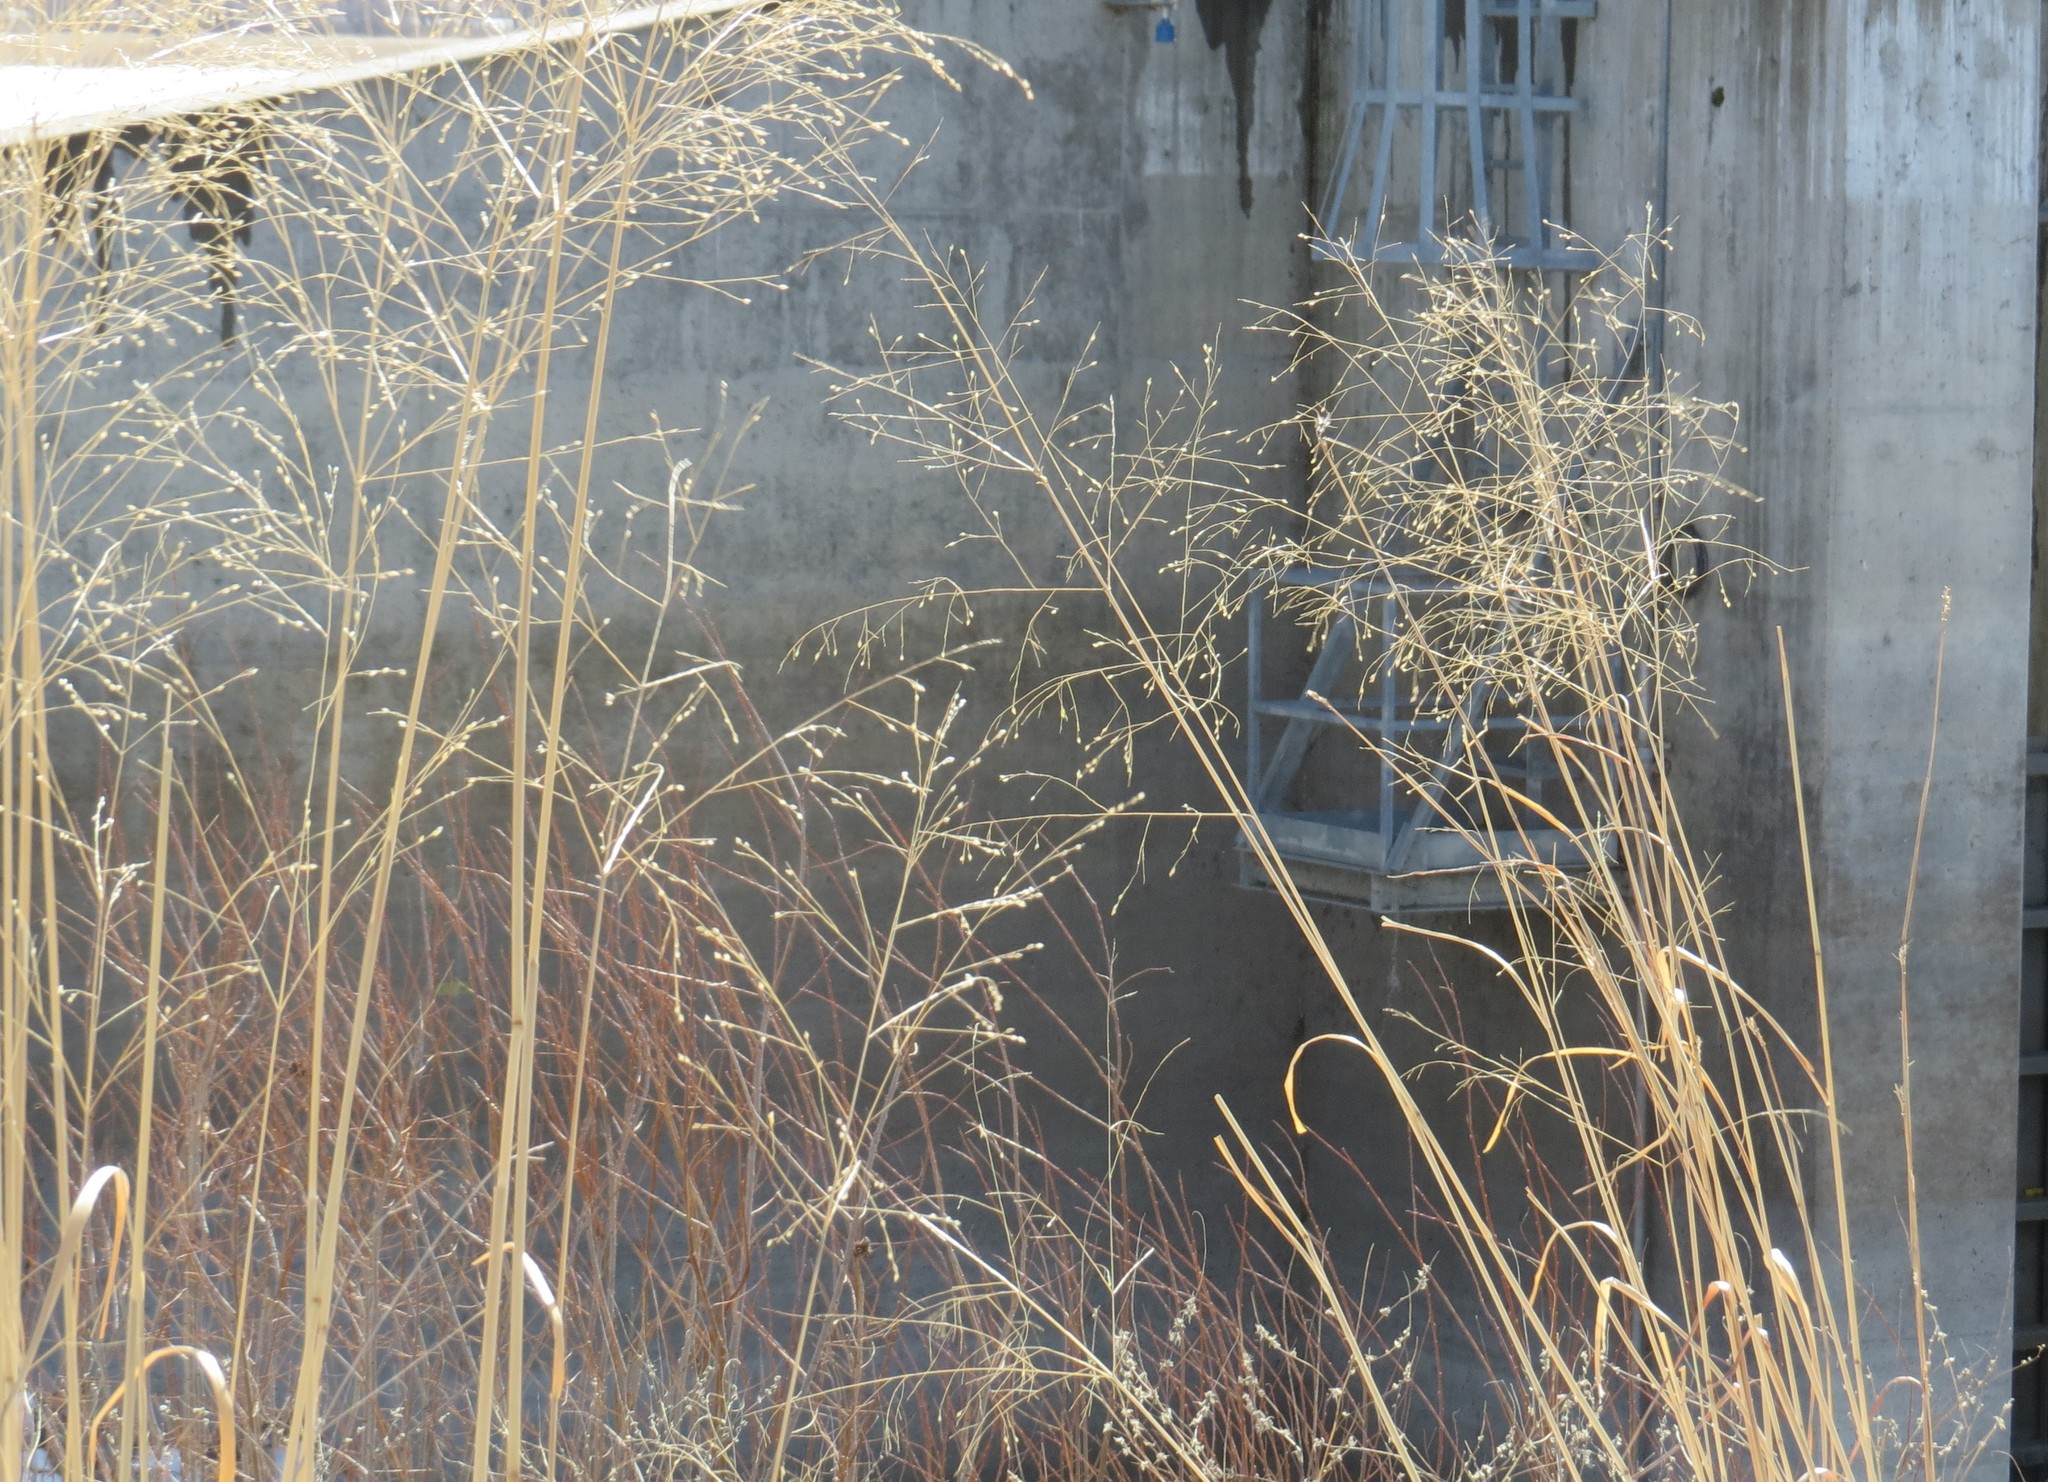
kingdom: Plantae
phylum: Tracheophyta
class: Liliopsida
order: Poales
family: Poaceae
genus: Panicum
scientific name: Panicum virgatum
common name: Switchgrass
